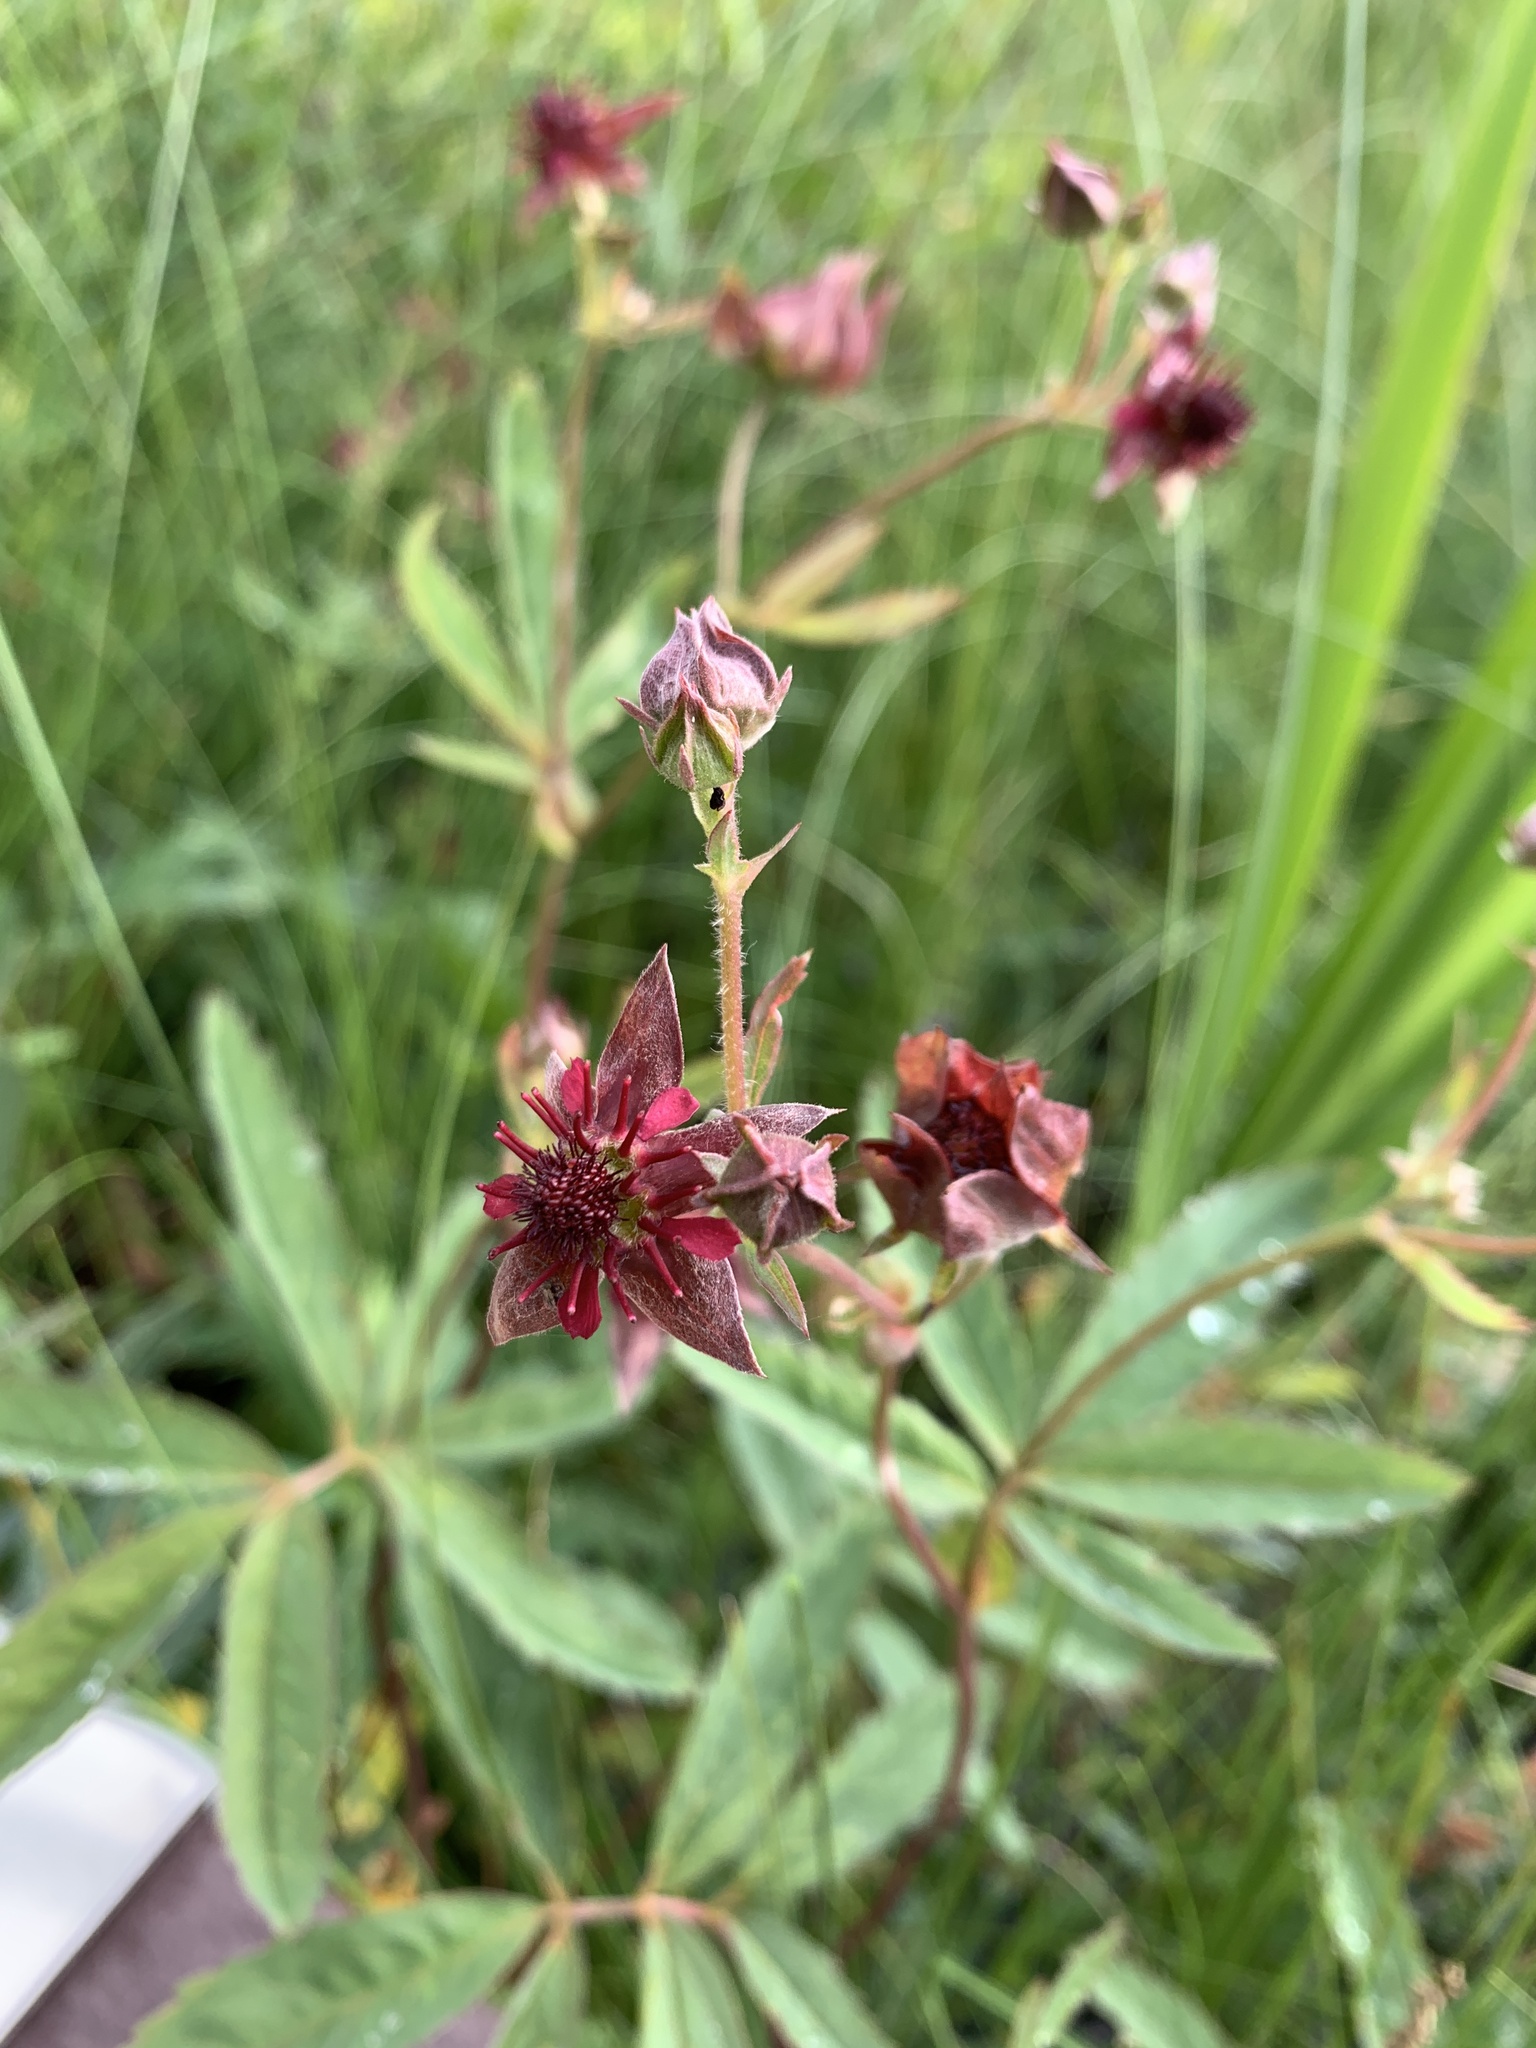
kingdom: Plantae
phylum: Tracheophyta
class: Magnoliopsida
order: Rosales
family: Rosaceae
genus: Comarum
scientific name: Comarum palustre
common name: Marsh cinquefoil
